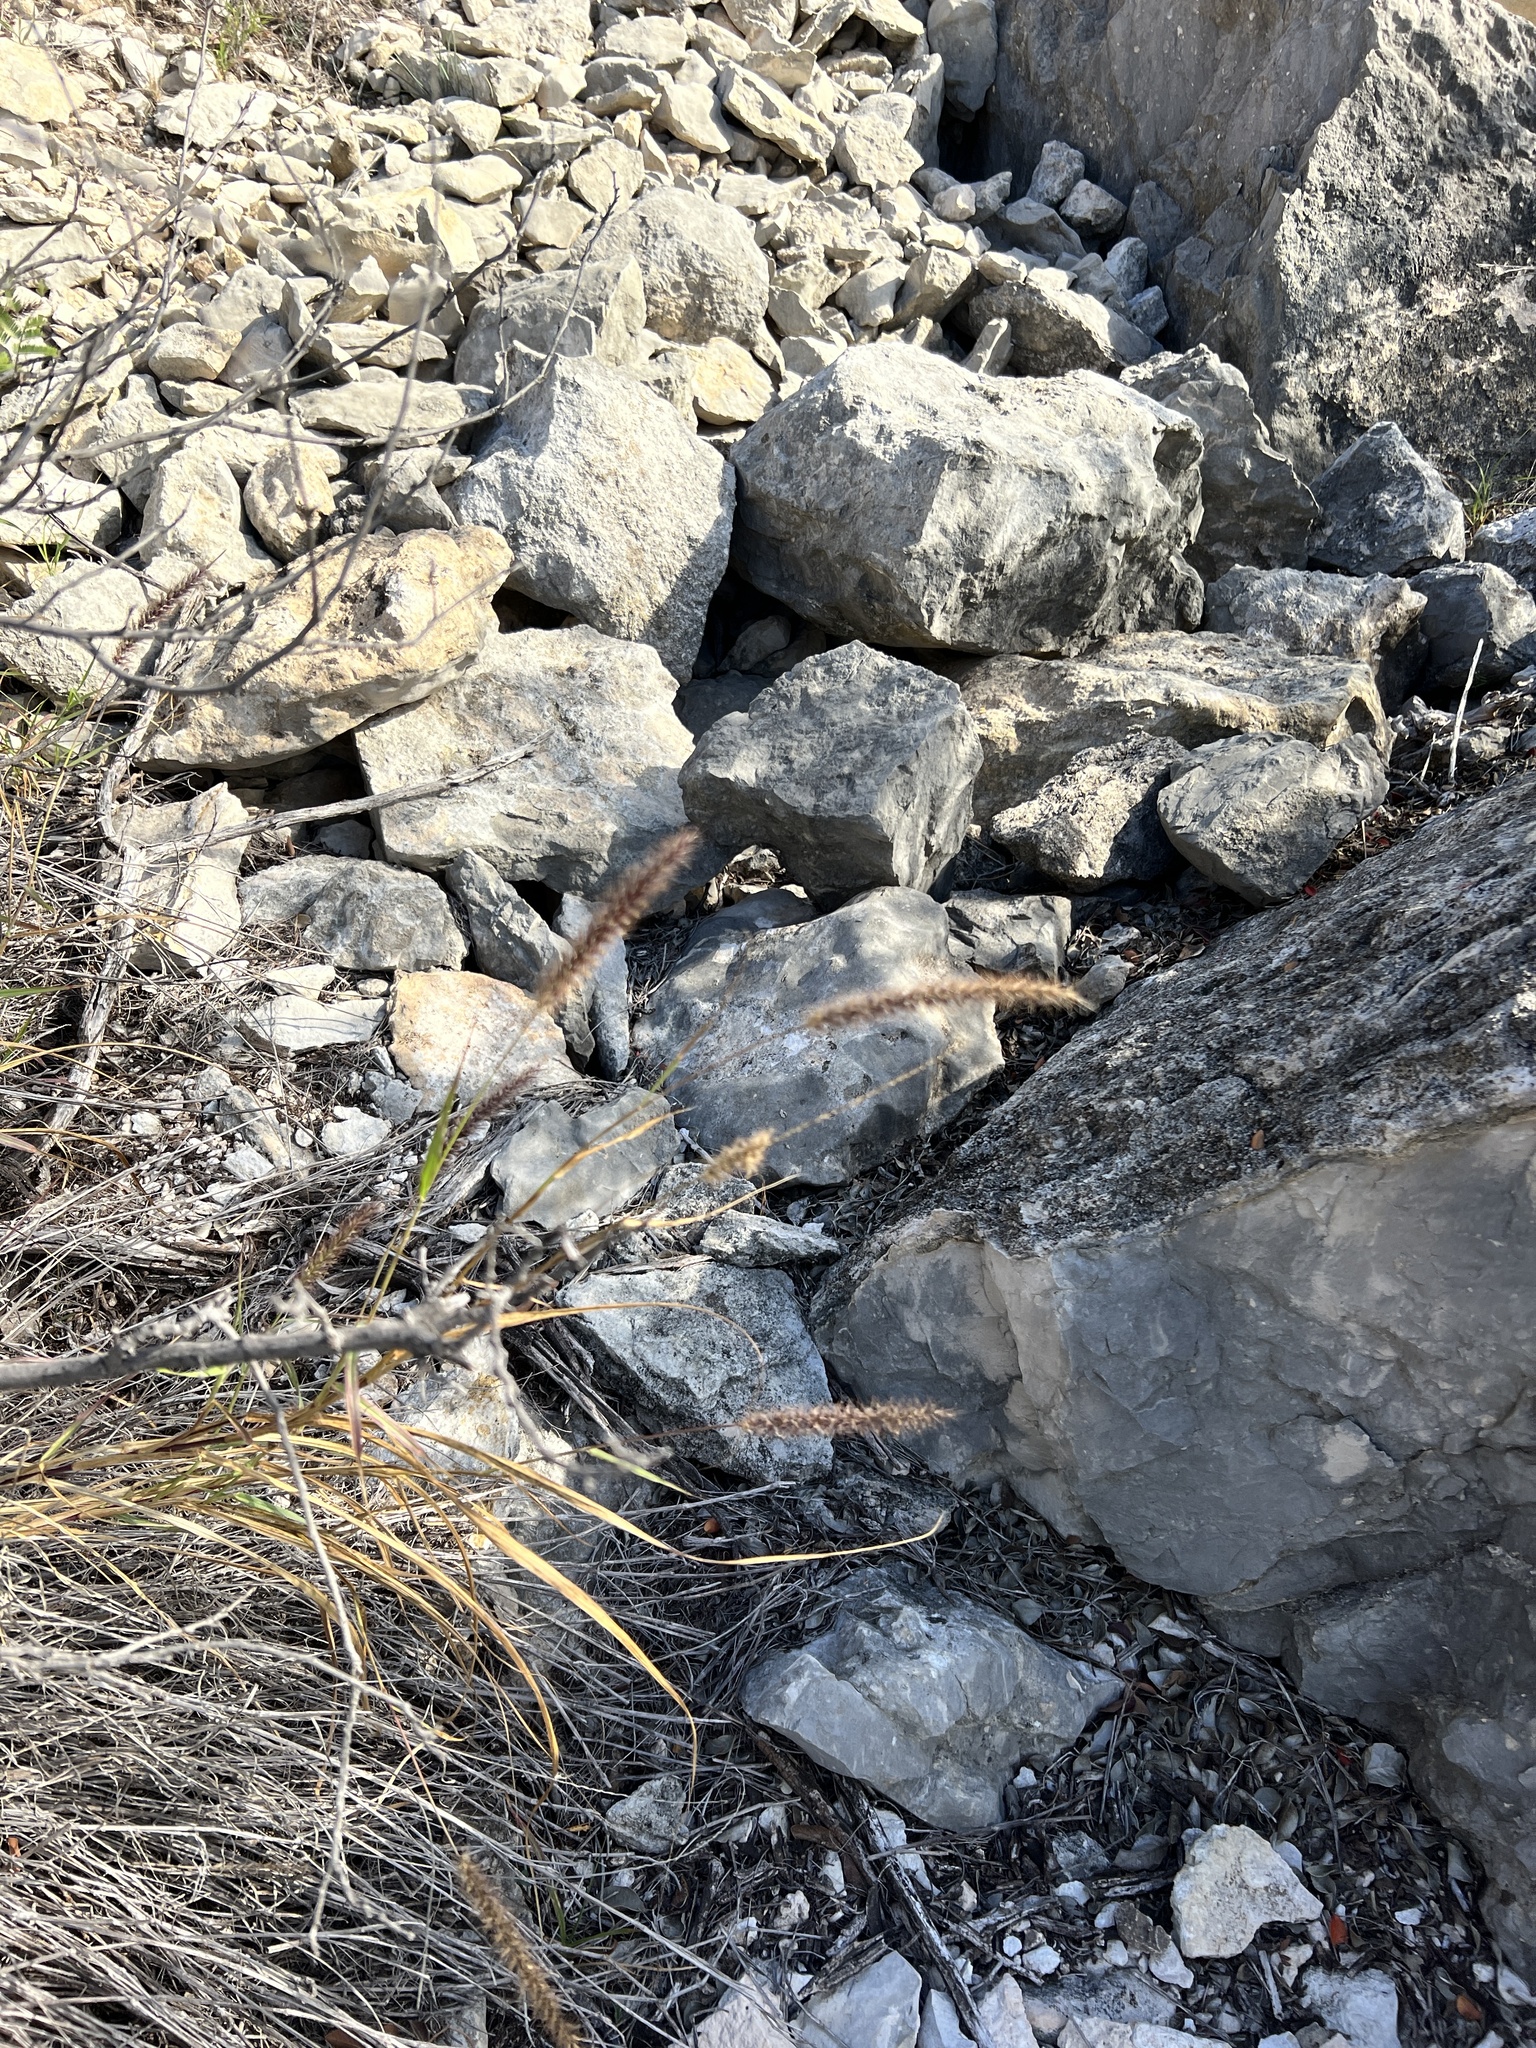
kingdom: Plantae
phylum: Tracheophyta
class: Liliopsida
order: Poales
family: Poaceae
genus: Cenchrus
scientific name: Cenchrus ciliaris
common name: Buffelgrass
